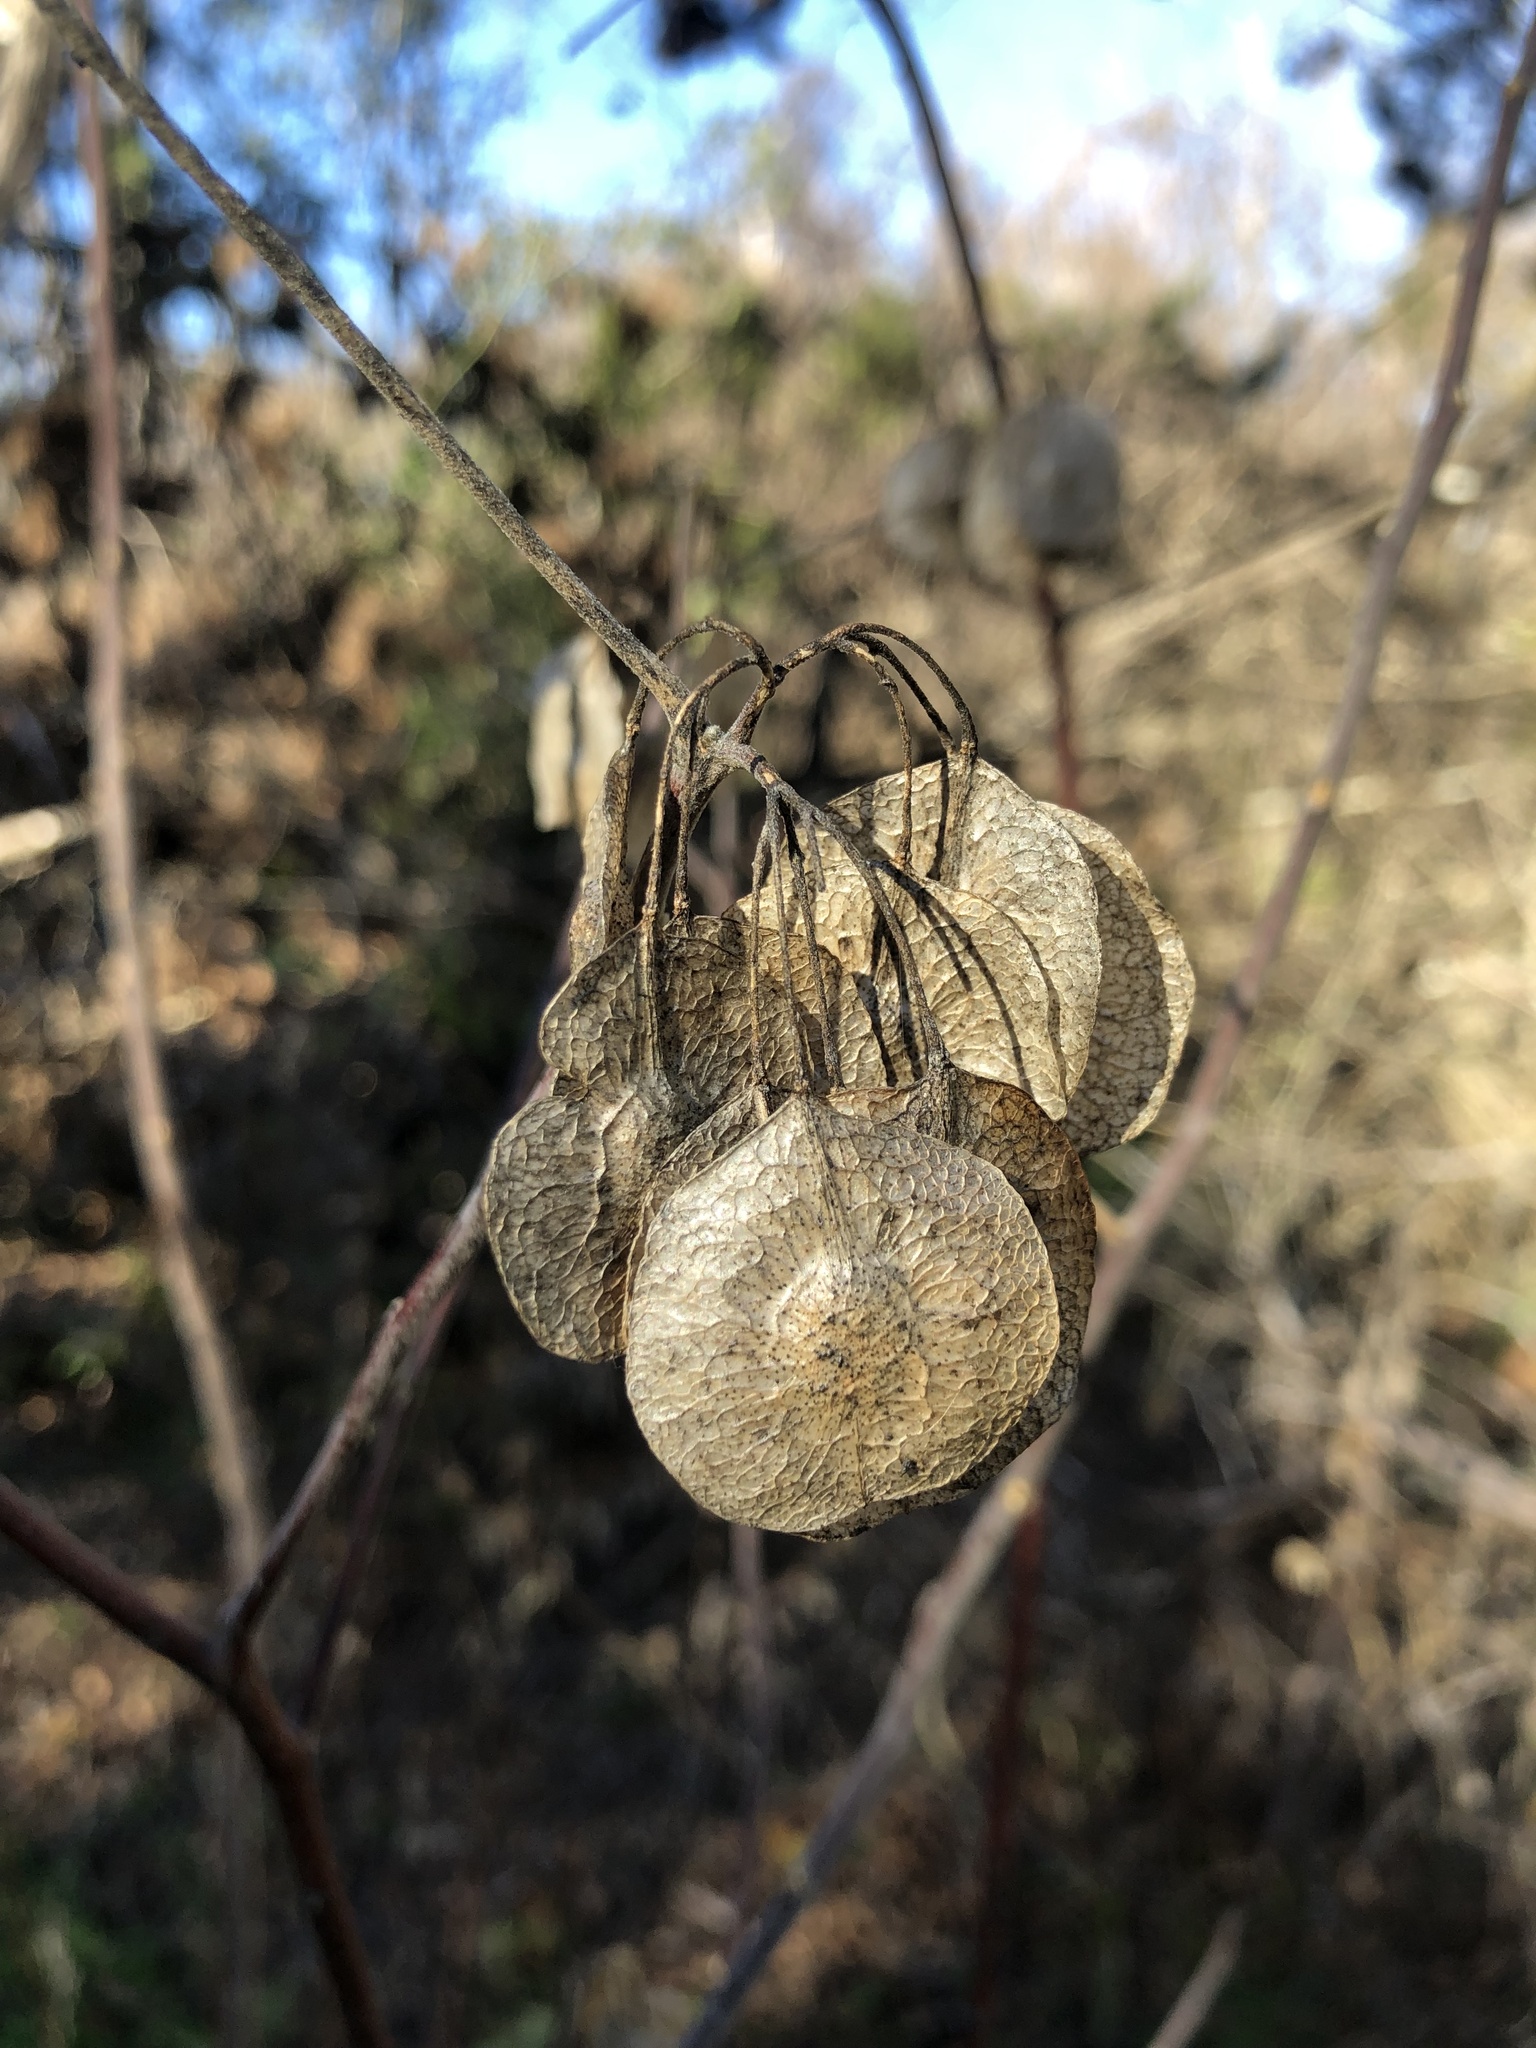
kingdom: Plantae
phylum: Tracheophyta
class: Magnoliopsida
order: Sapindales
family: Rutaceae
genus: Ptelea
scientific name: Ptelea trifoliata
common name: Common hop-tree
